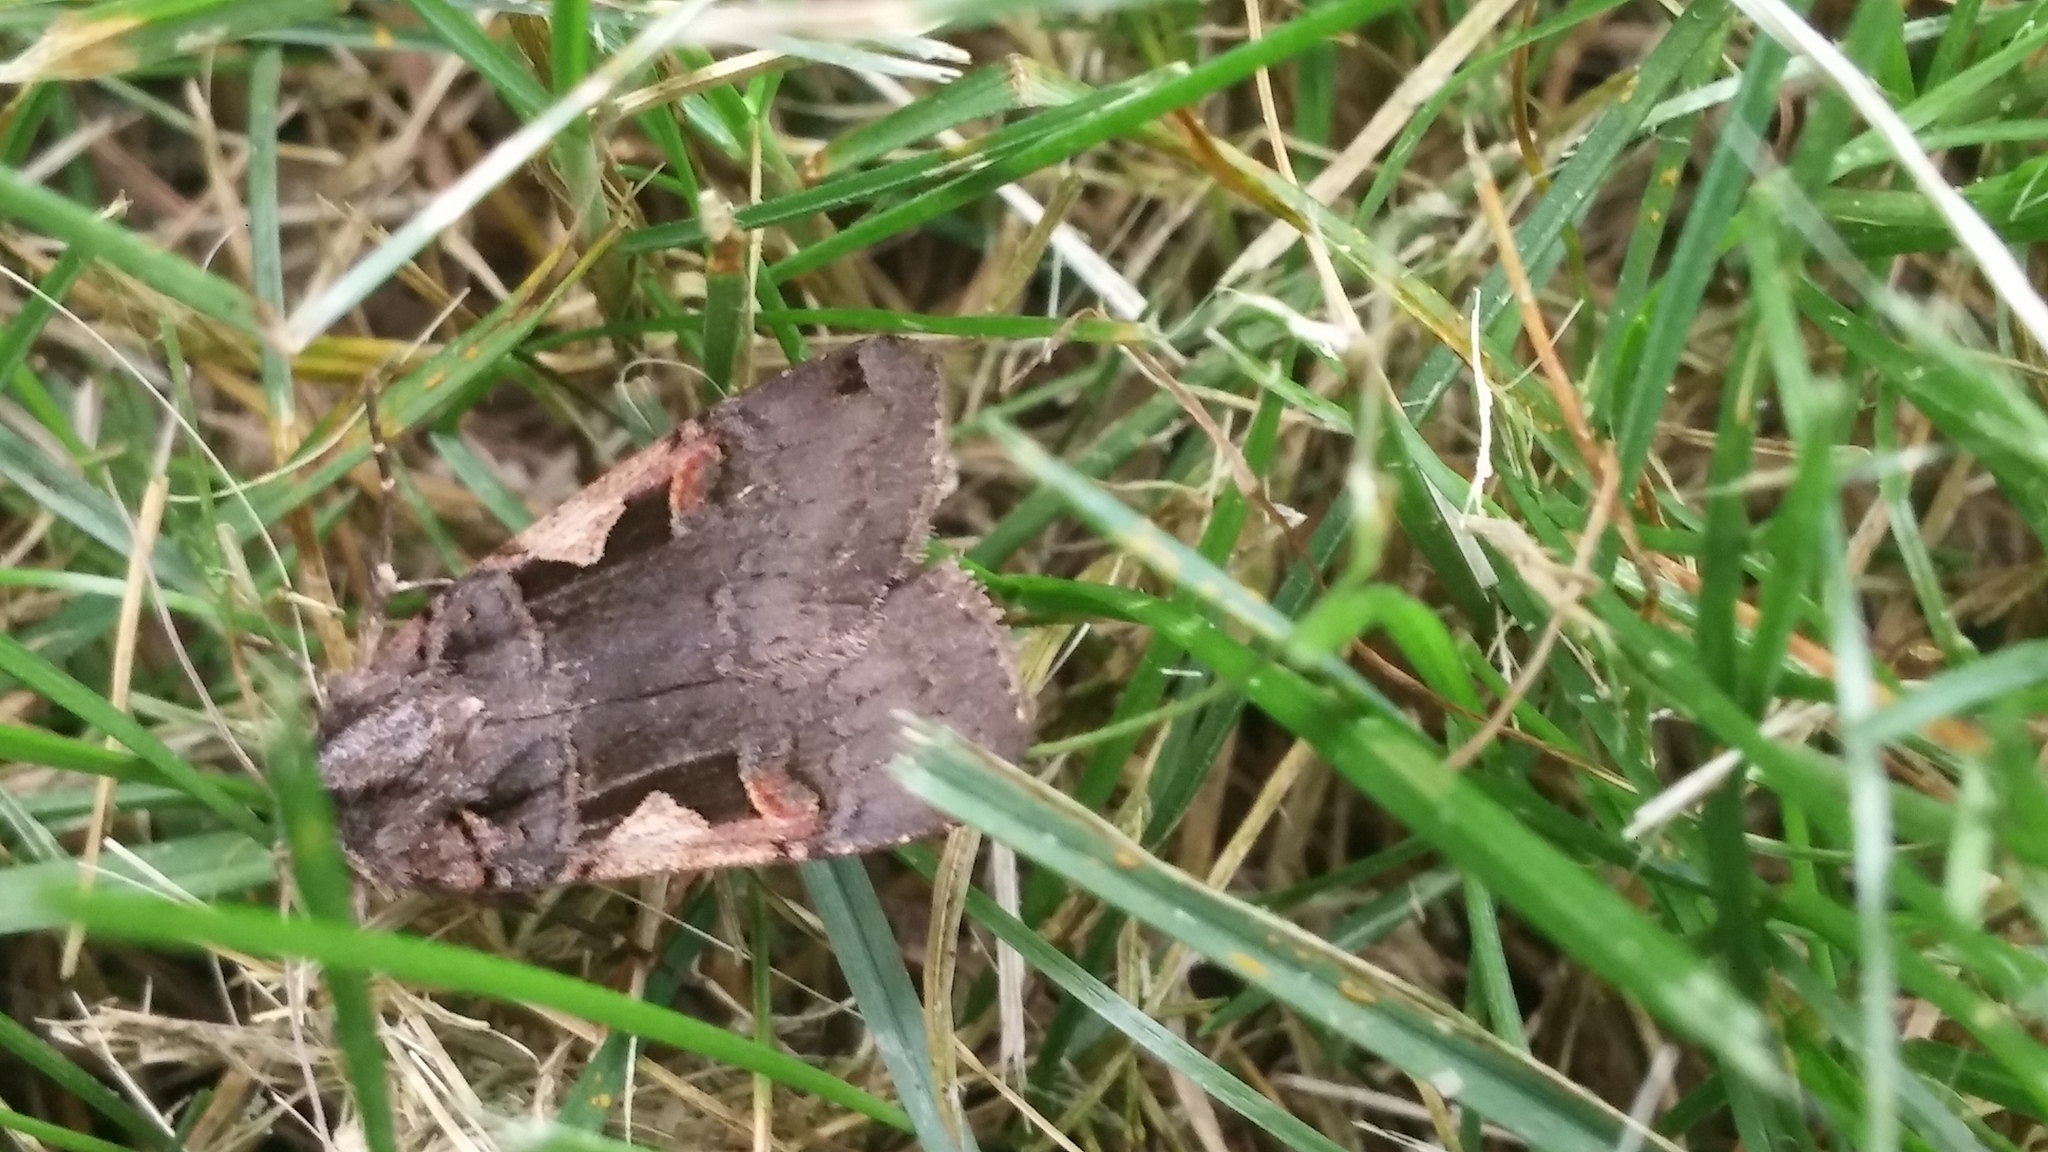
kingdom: Animalia
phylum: Arthropoda
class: Insecta
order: Lepidoptera
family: Noctuidae
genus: Xestia
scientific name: Xestia
